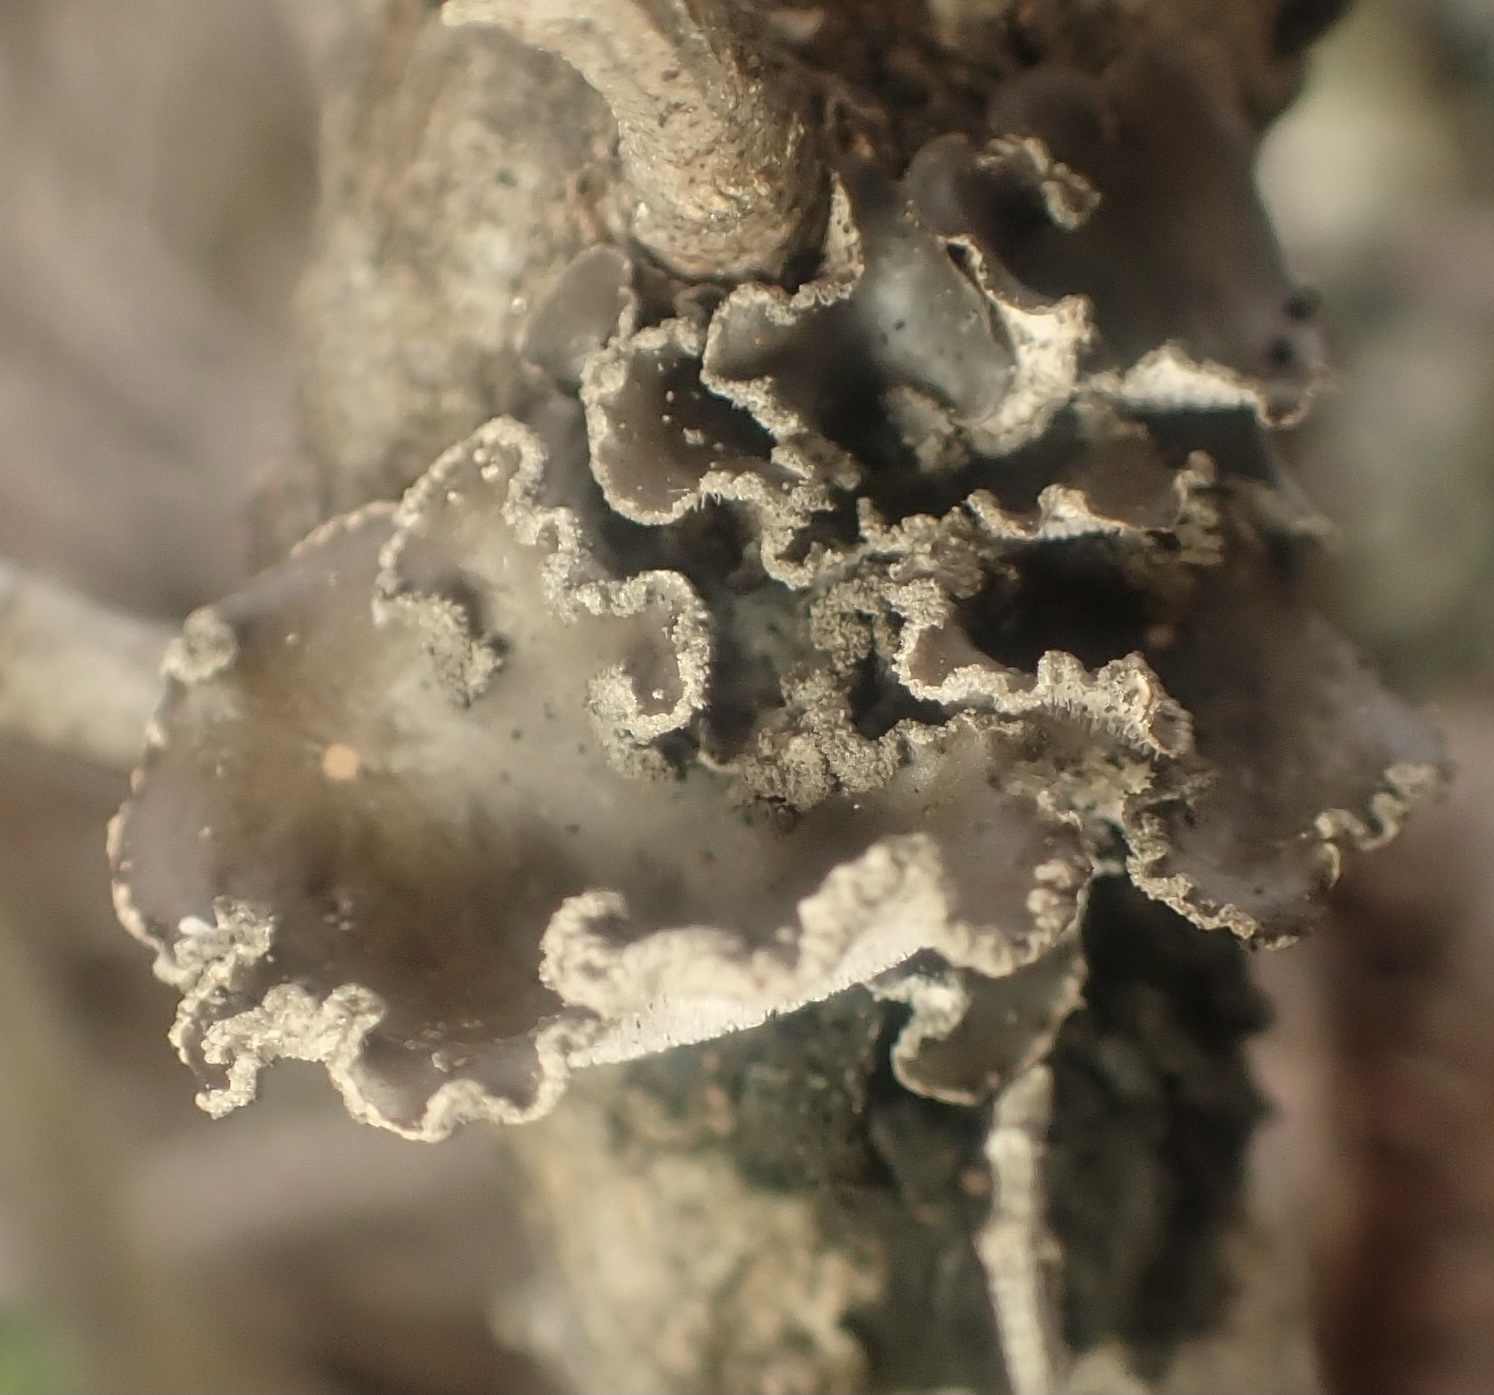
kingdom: Fungi
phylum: Ascomycota
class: Lecanoromycetes
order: Peltigerales
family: Lobariaceae
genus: Sticta
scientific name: Sticta limbata
